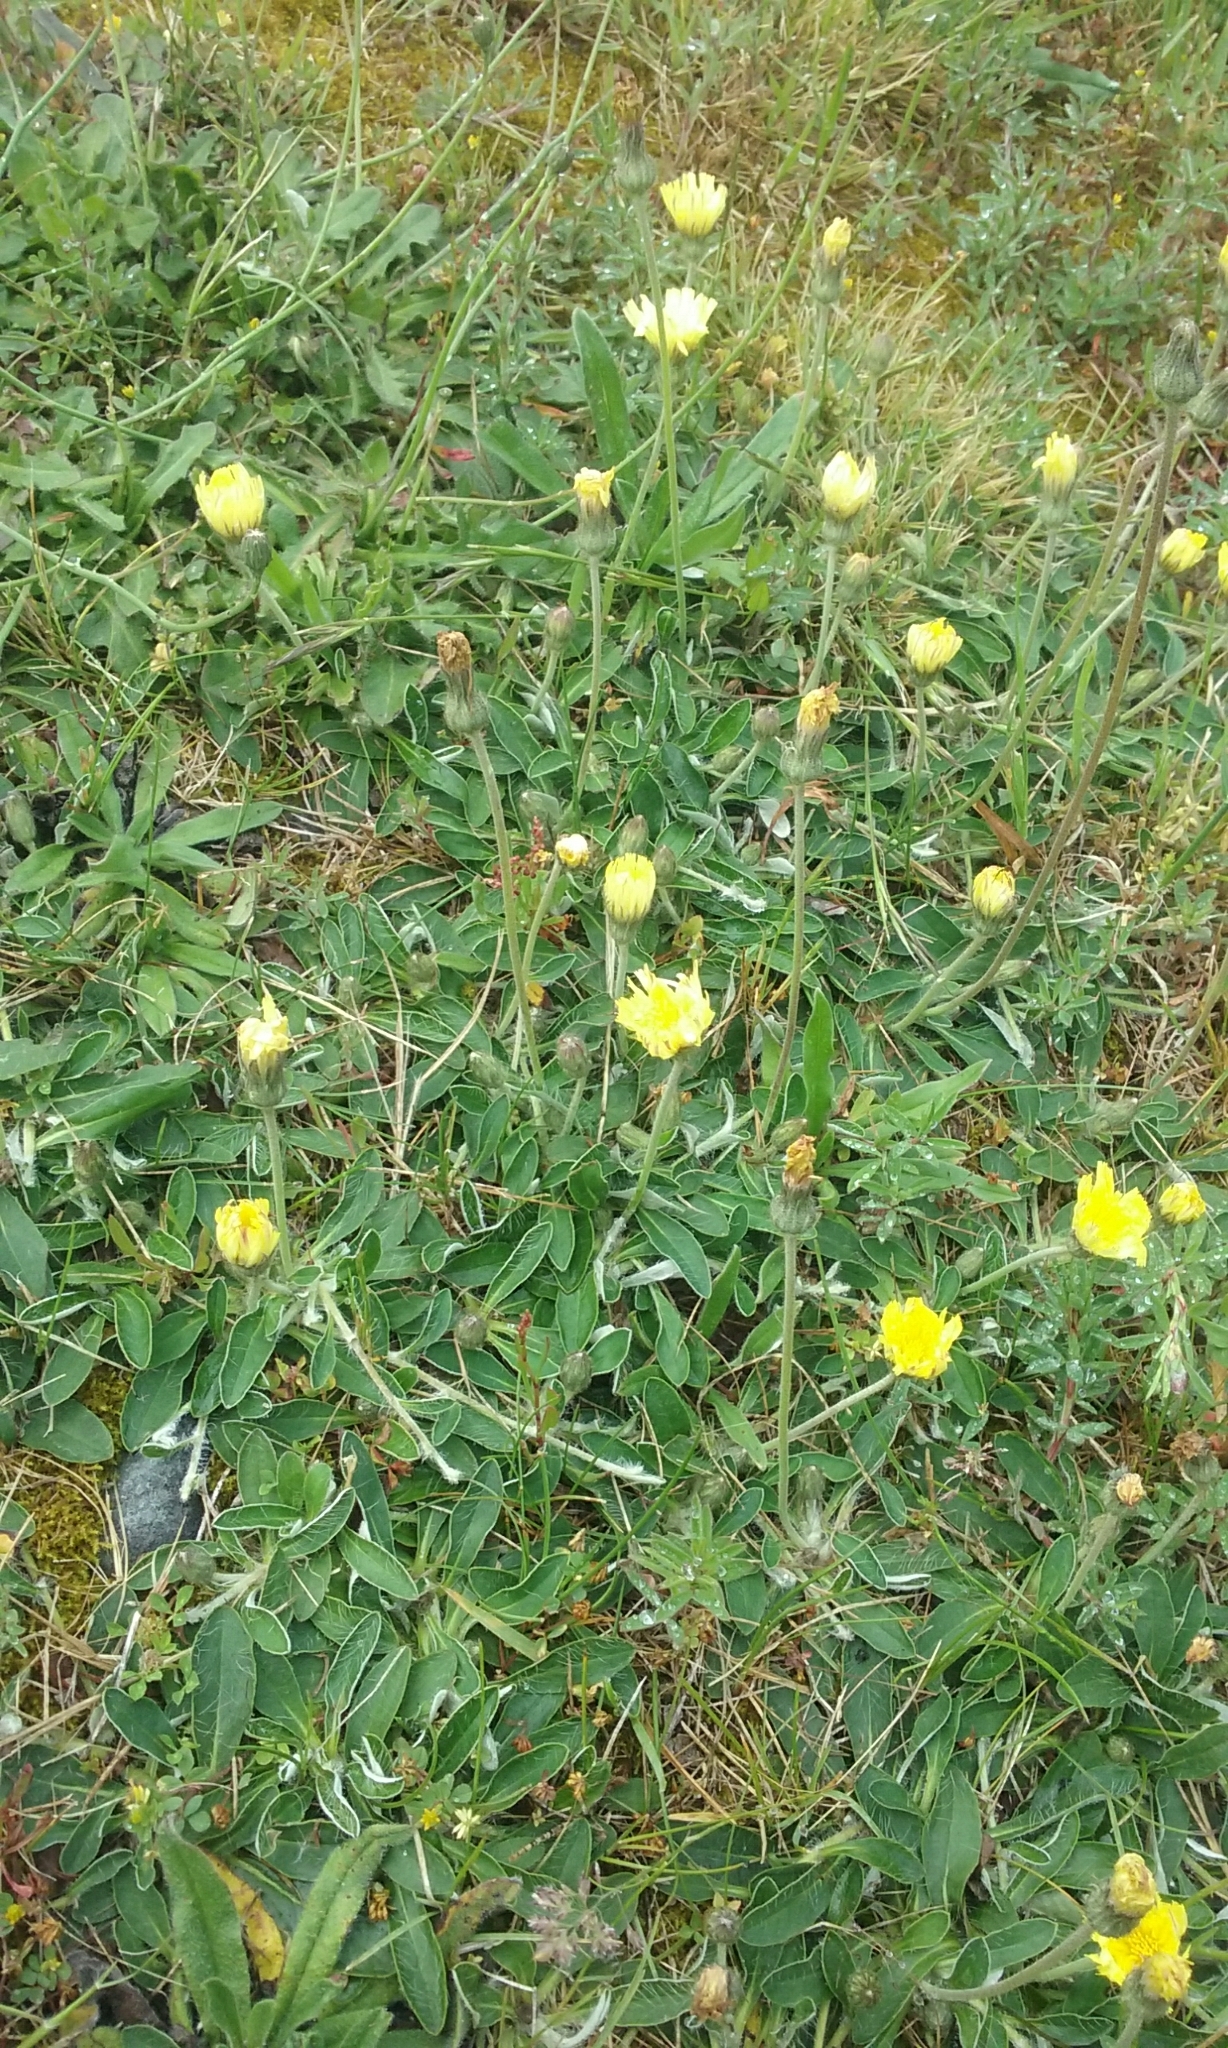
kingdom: Plantae
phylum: Tracheophyta
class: Magnoliopsida
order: Asterales
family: Asteraceae
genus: Pilosella
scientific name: Pilosella officinarum
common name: Mouse-ear hawkweed
